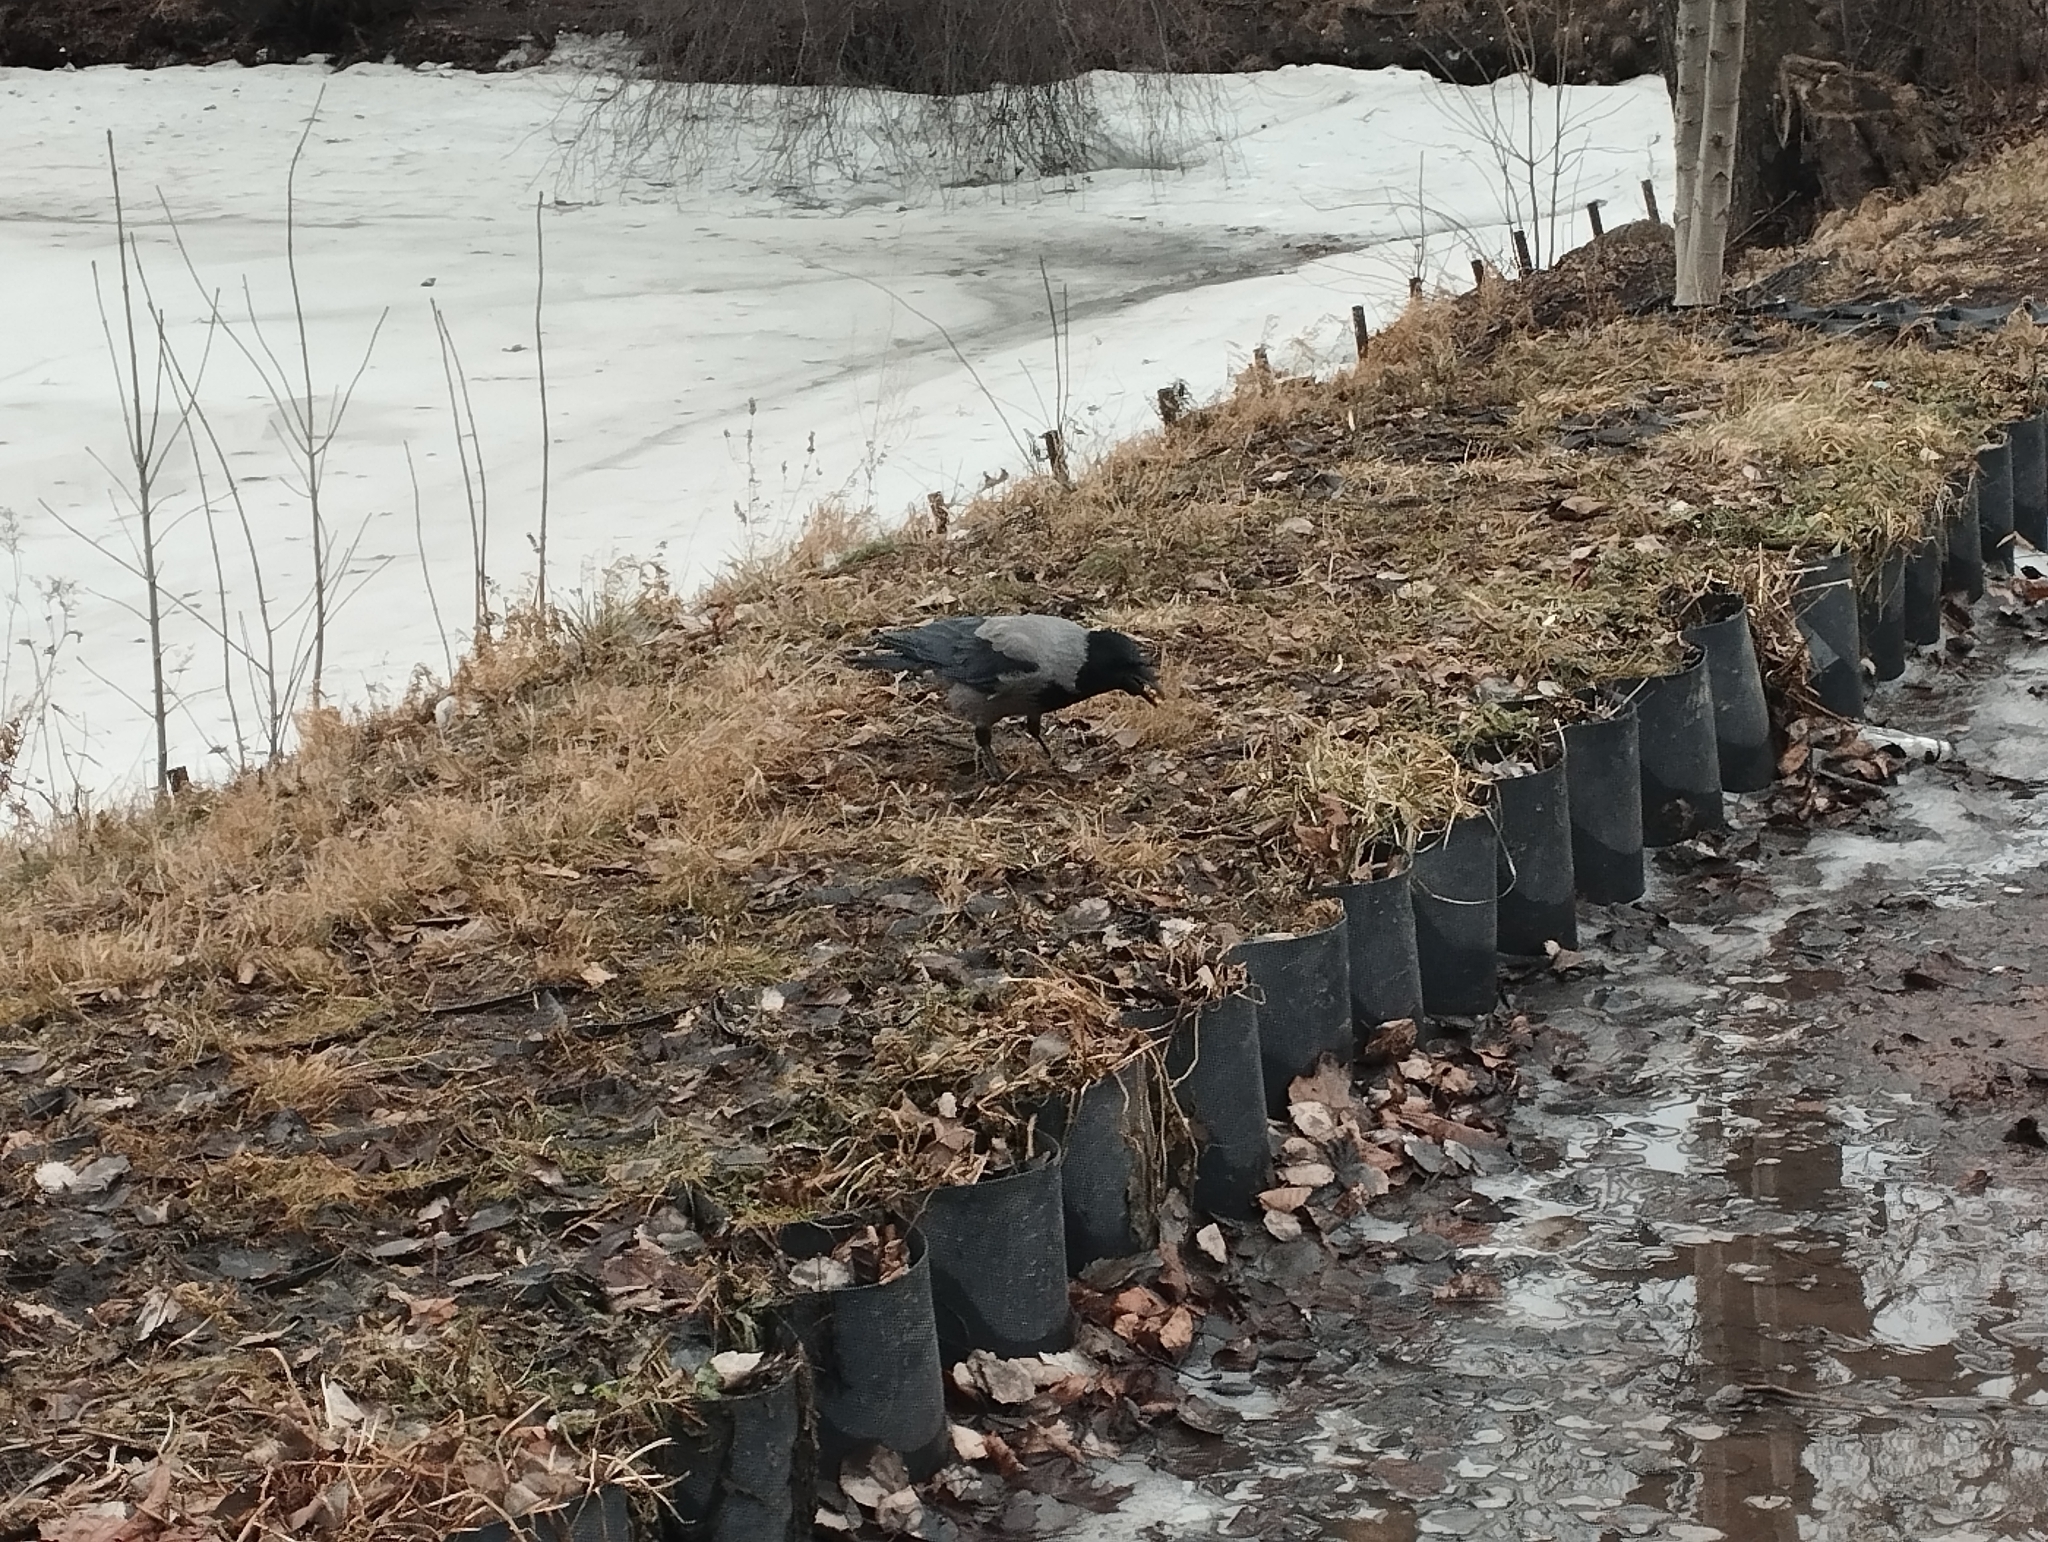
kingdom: Animalia
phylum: Chordata
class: Aves
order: Passeriformes
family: Corvidae
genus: Corvus
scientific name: Corvus cornix
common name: Hooded crow
